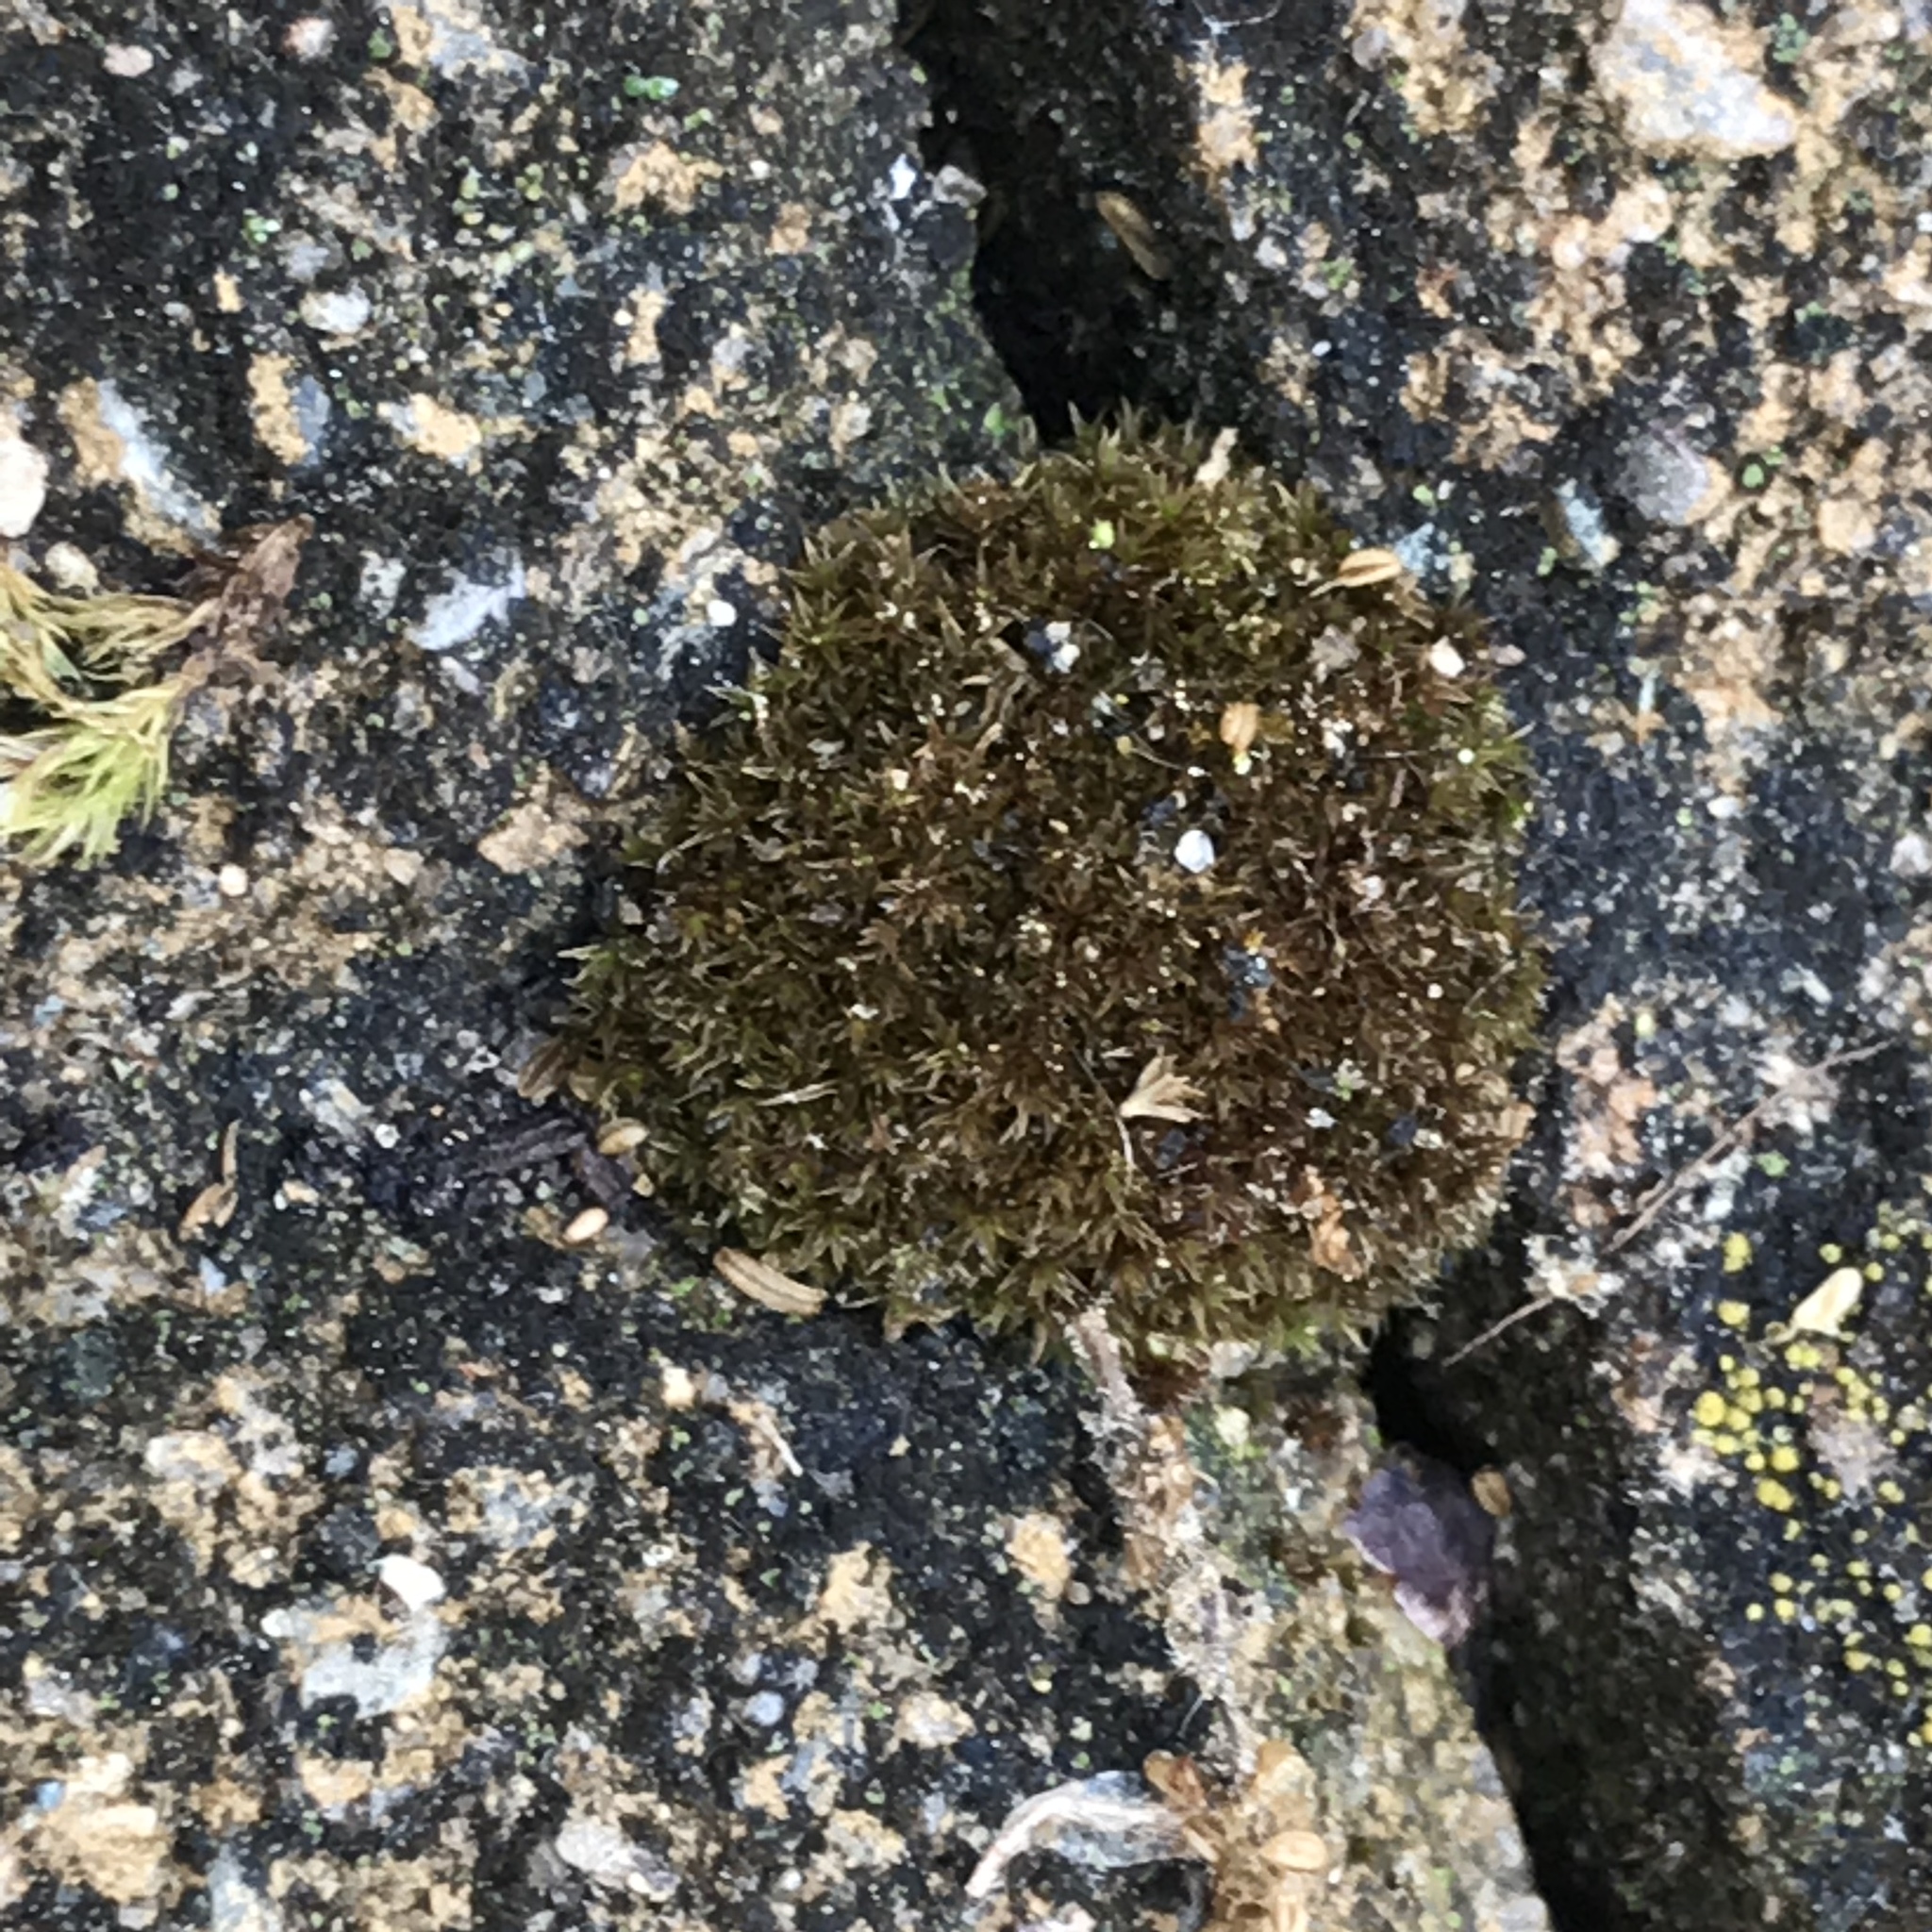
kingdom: Plantae
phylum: Bryophyta
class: Bryopsida
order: Pottiales
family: Pottiaceae
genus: Tortula
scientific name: Tortula muralis
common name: Wall screw-moss
